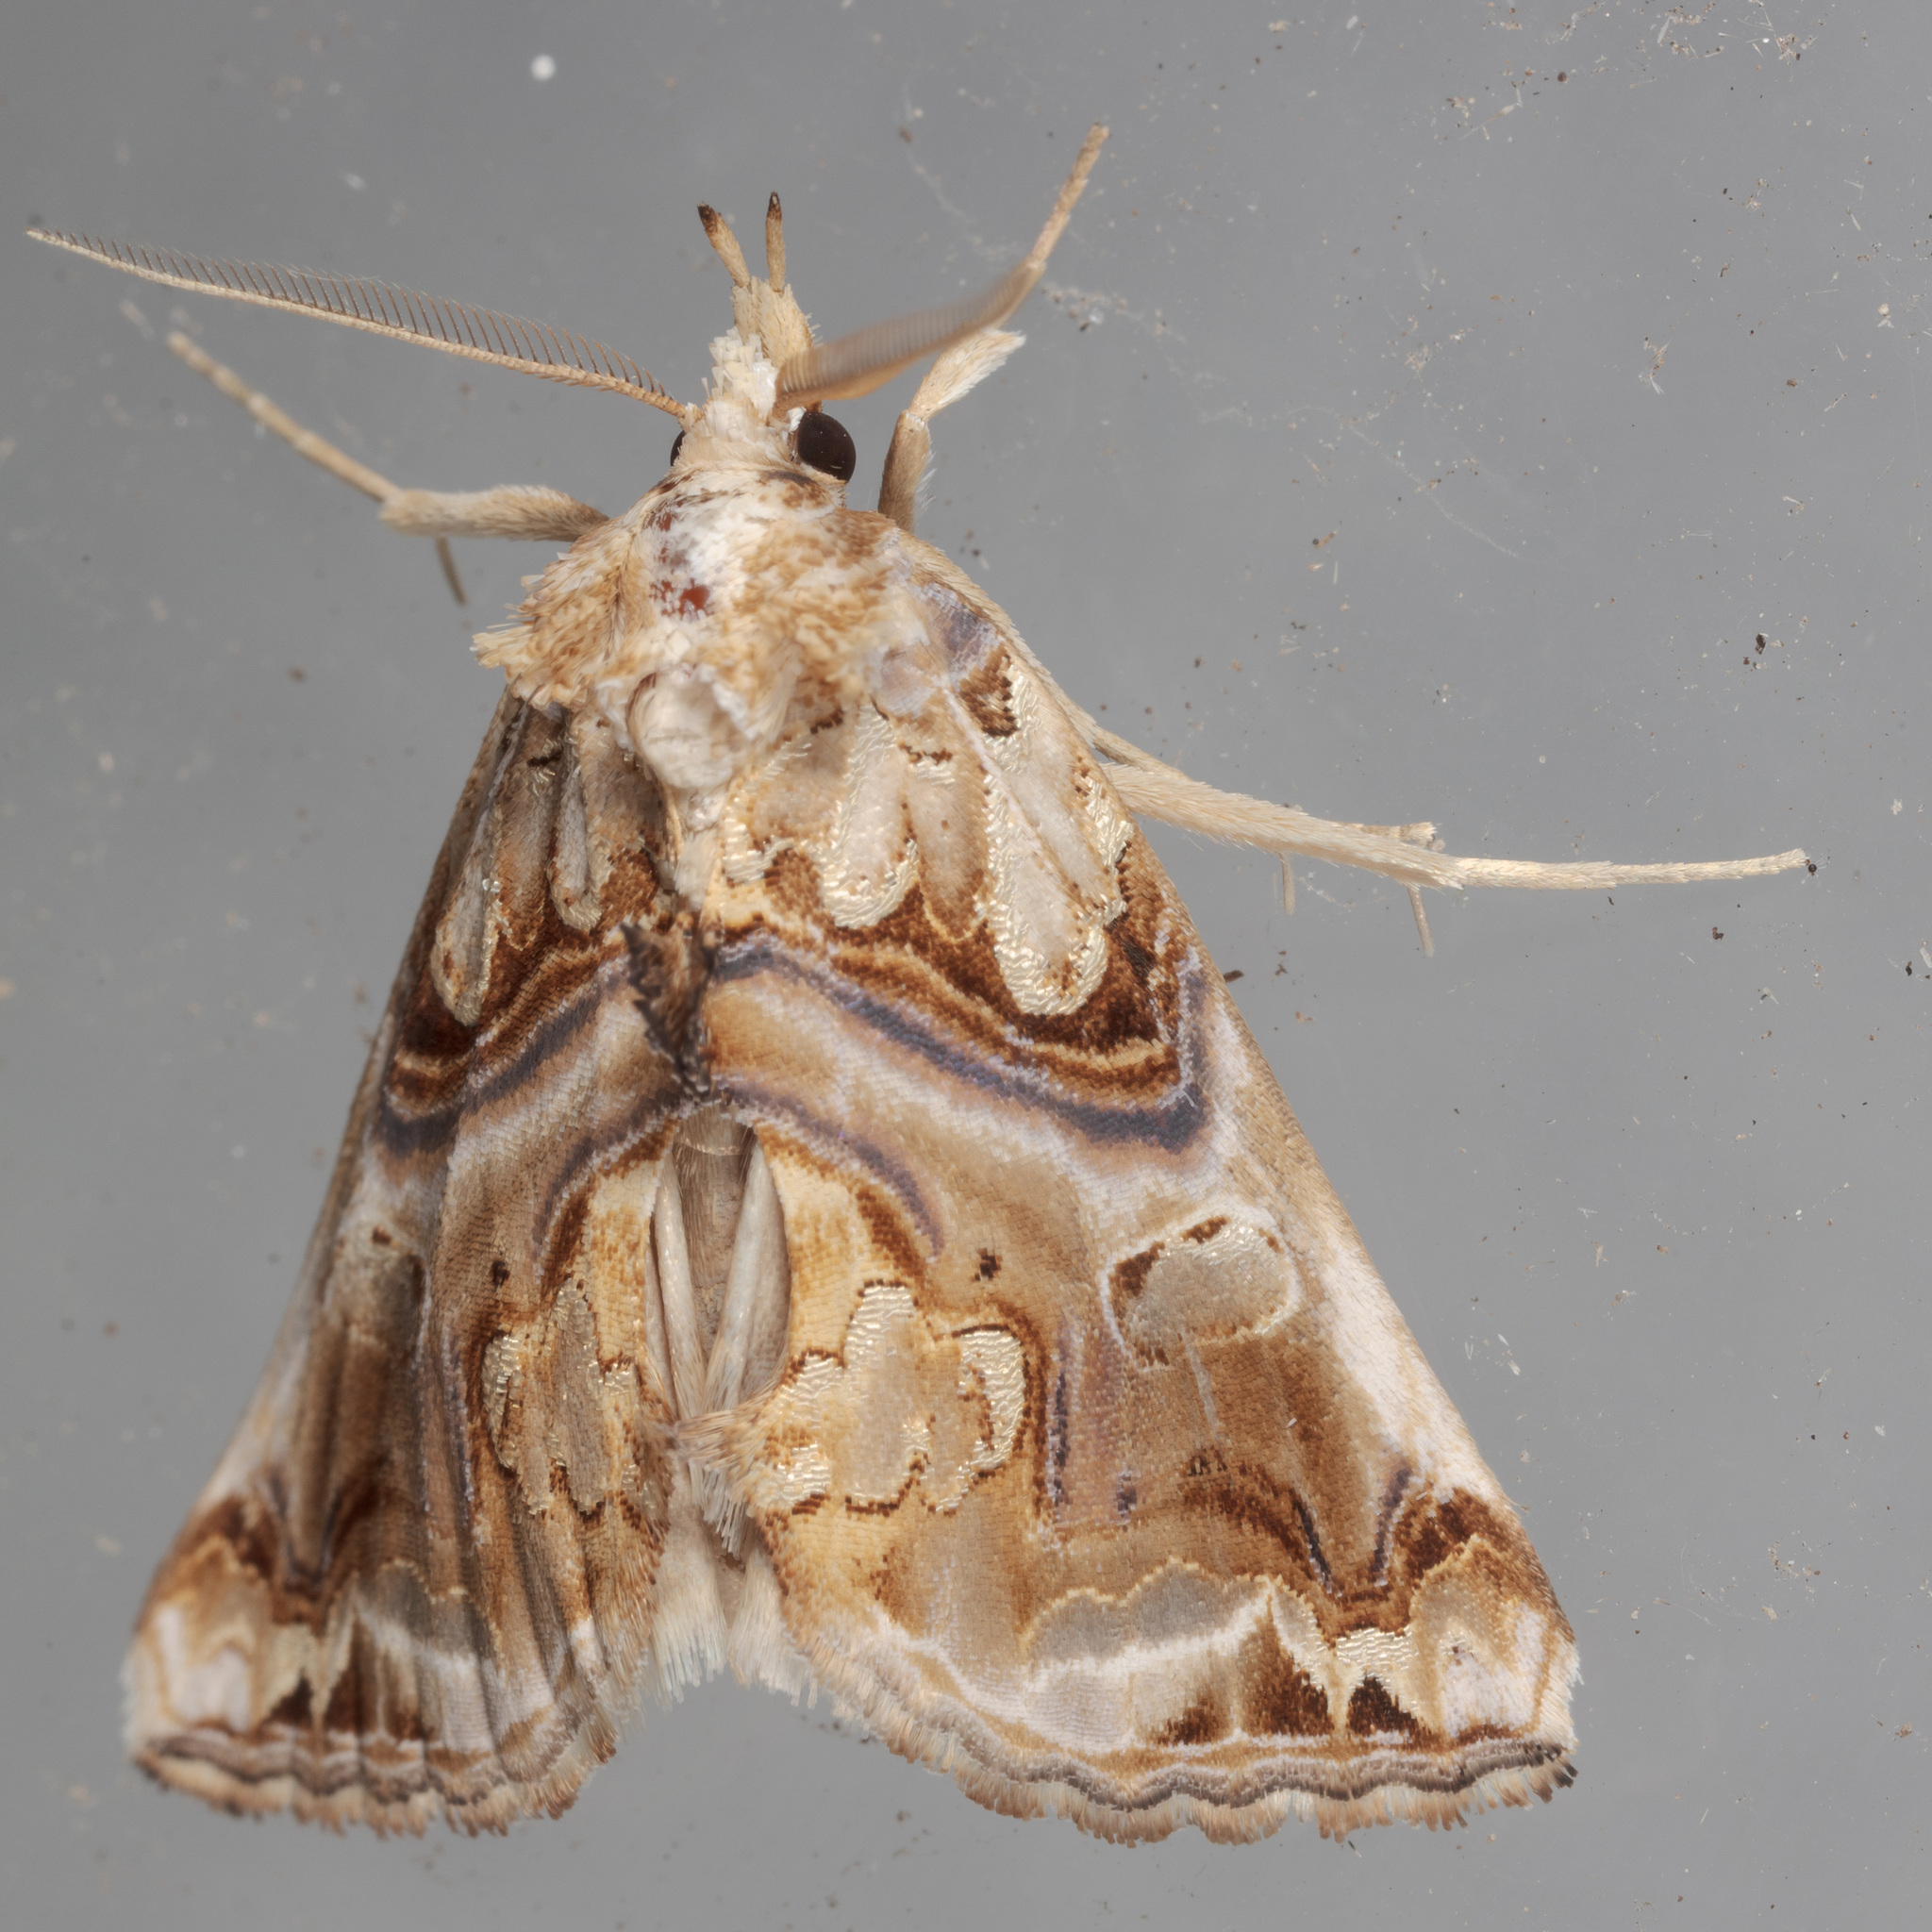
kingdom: Animalia
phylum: Arthropoda
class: Insecta
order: Lepidoptera
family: Erebidae
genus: Plusiodonta
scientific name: Plusiodonta compressipalpis
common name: Moonseed moth
